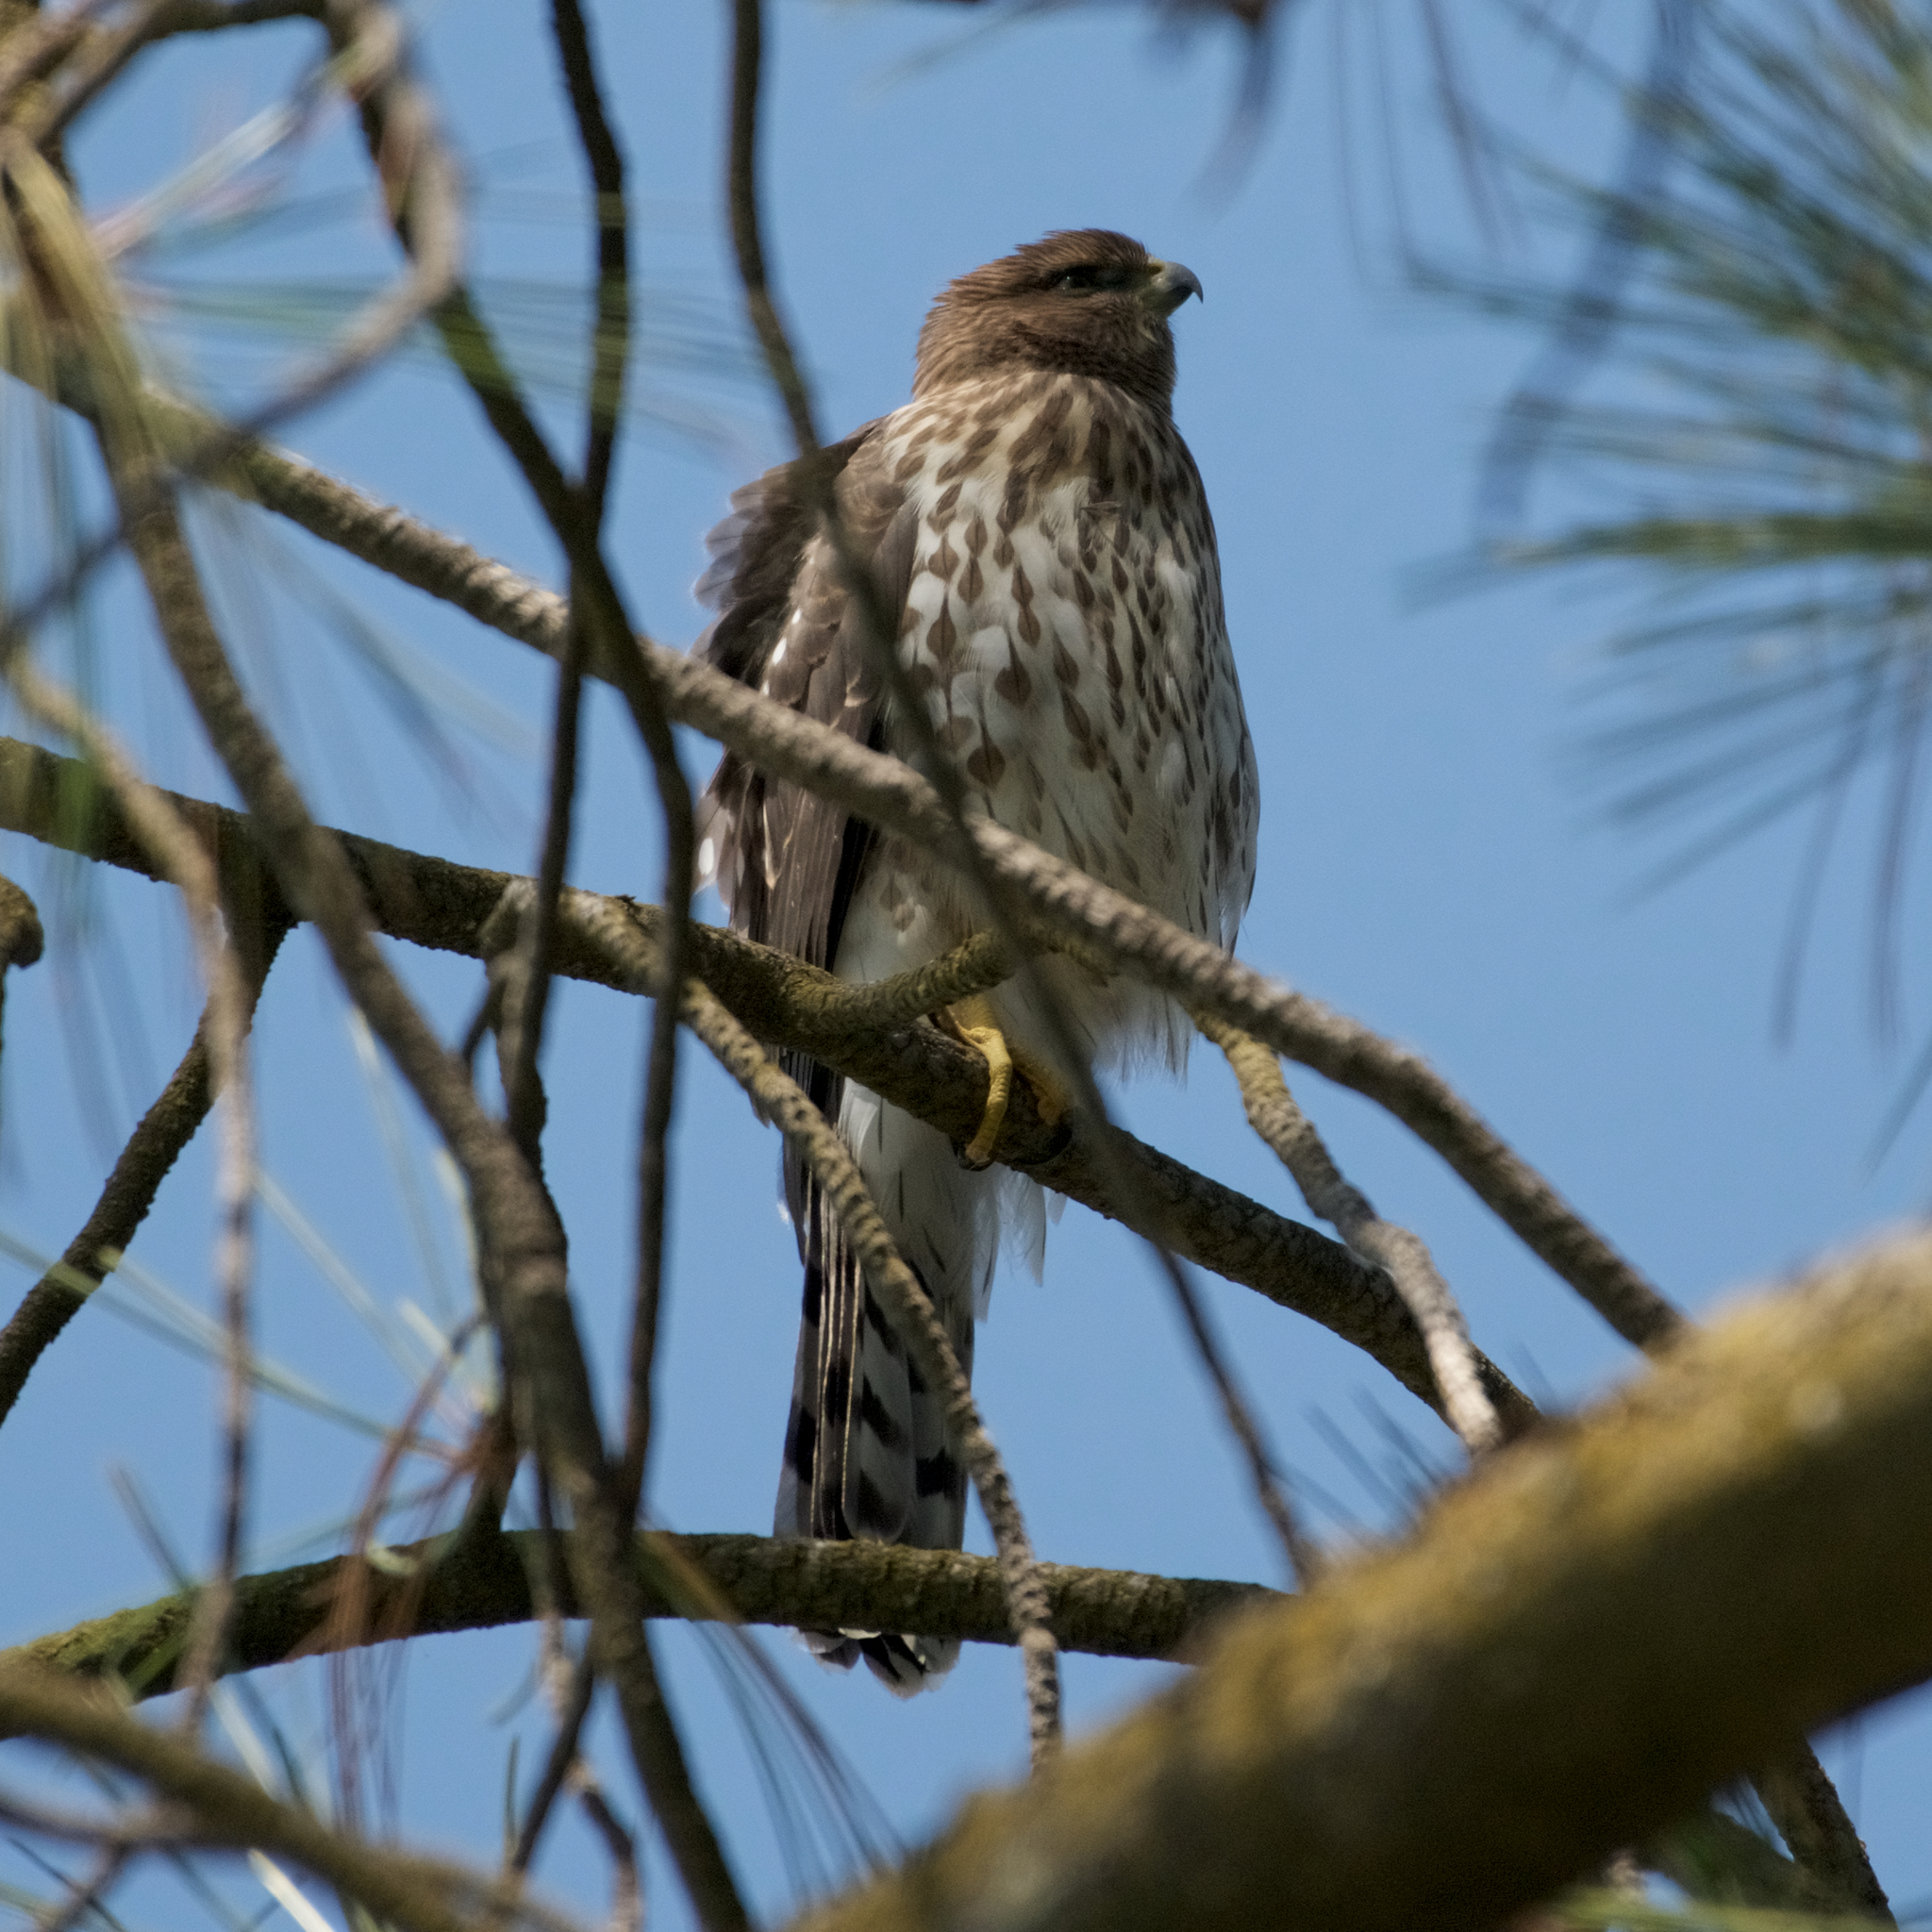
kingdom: Animalia
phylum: Chordata
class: Aves
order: Accipitriformes
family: Accipitridae
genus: Accipiter
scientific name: Accipiter cooperii
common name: Cooper's hawk
